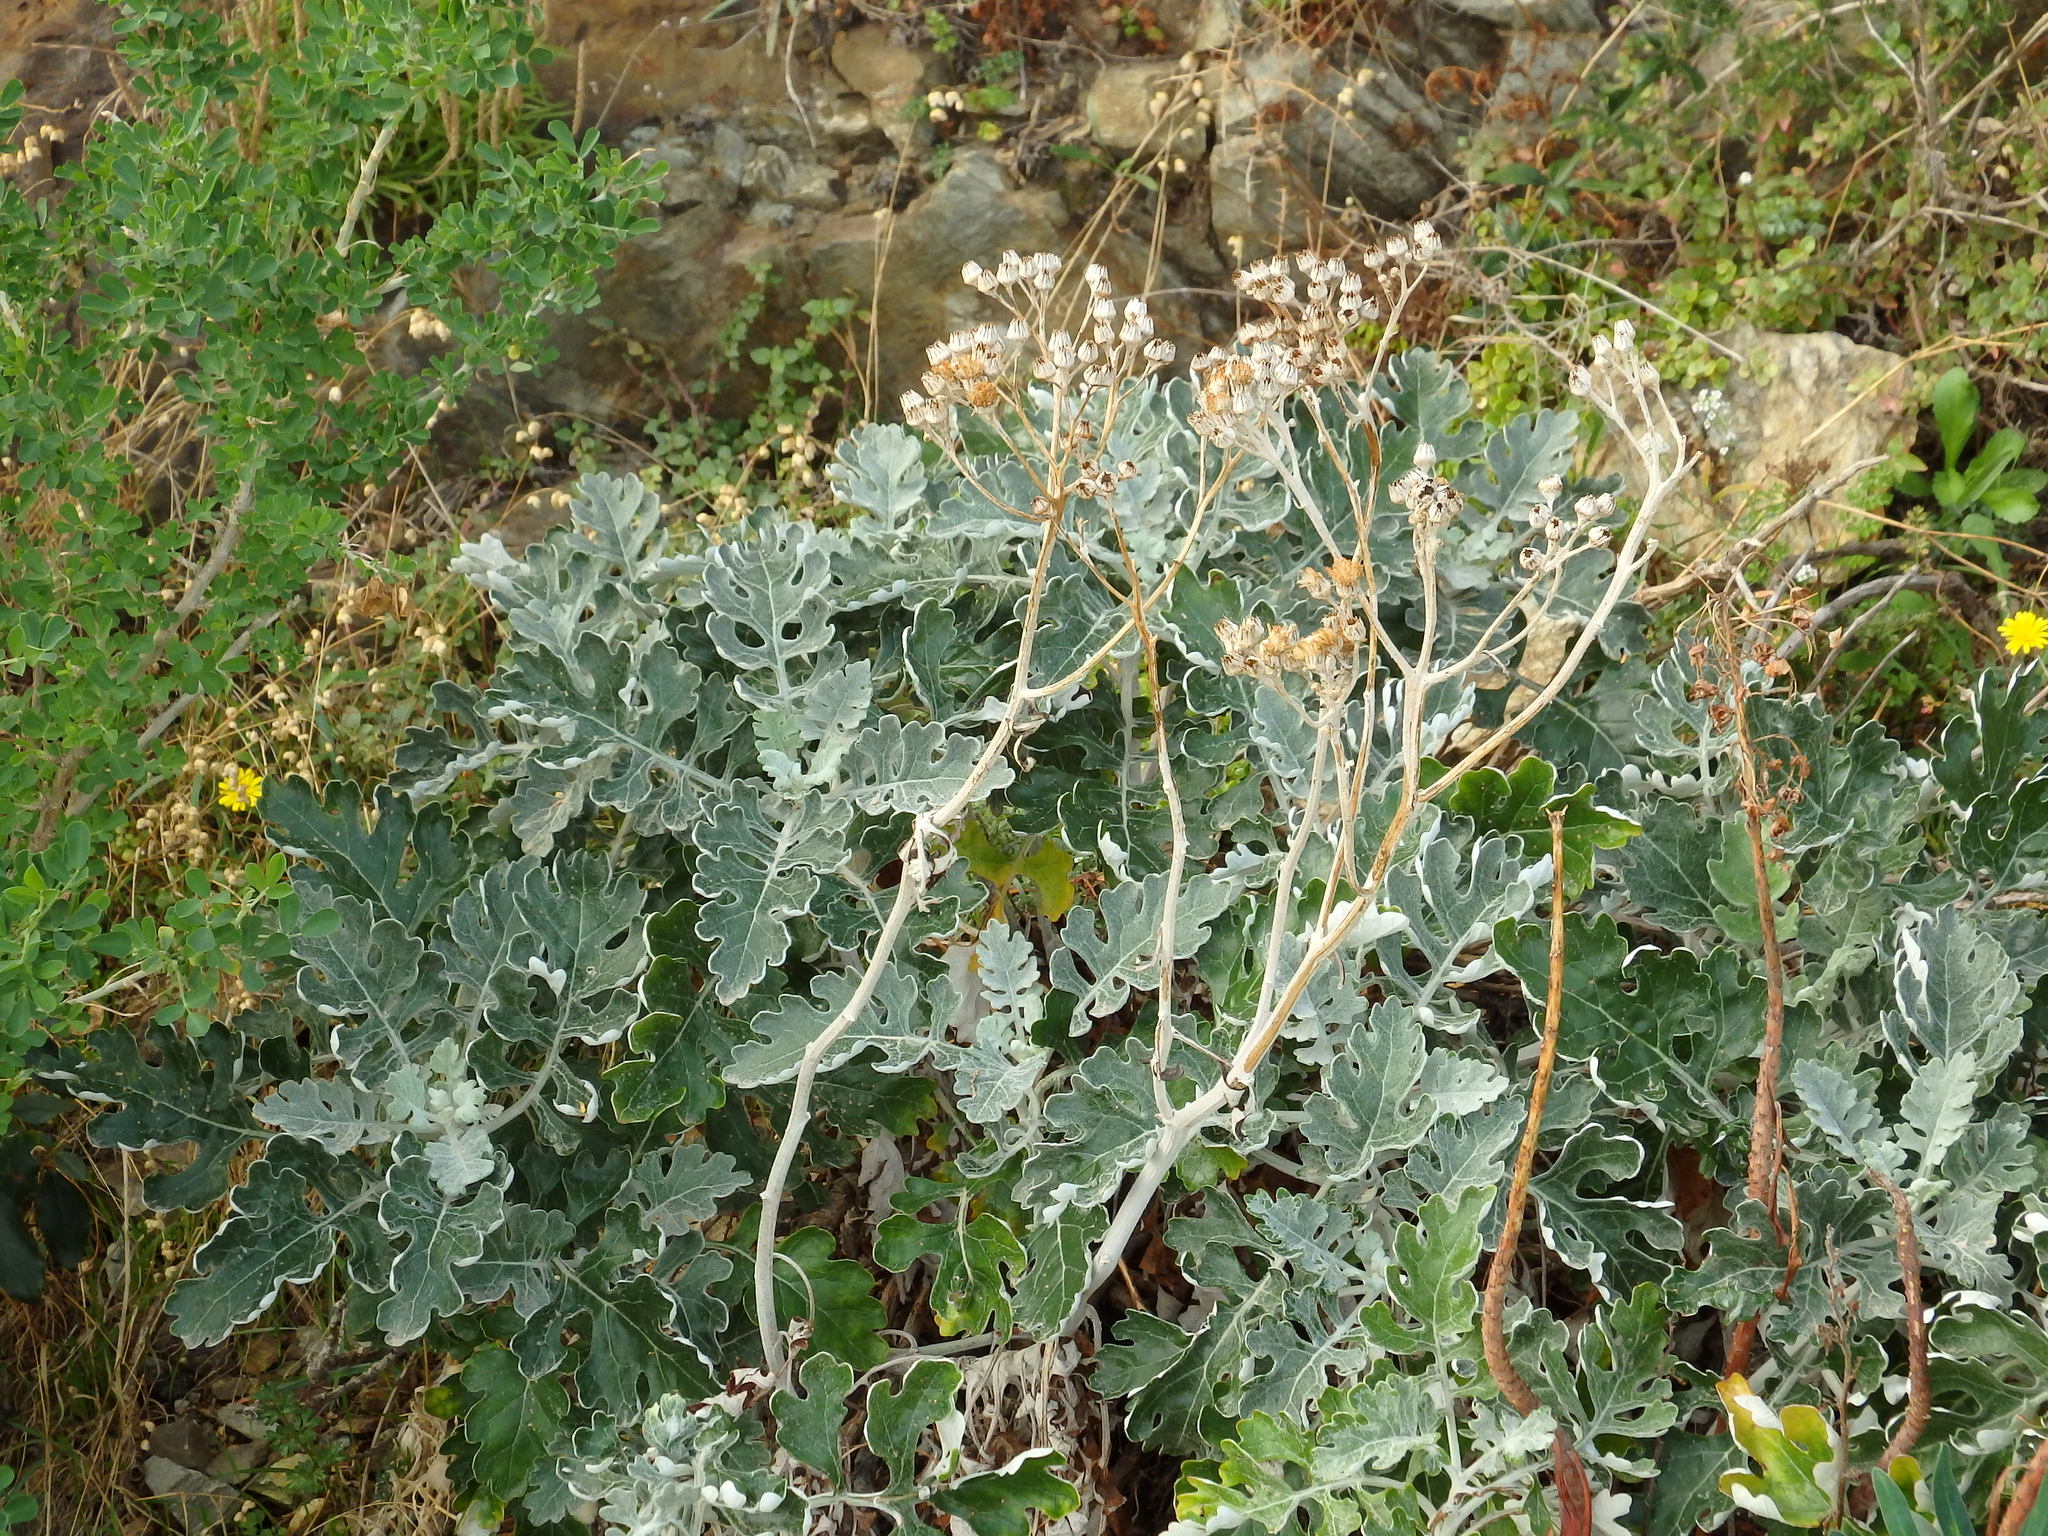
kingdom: Plantae
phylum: Tracheophyta
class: Magnoliopsida
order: Asterales
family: Asteraceae
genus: Jacobaea
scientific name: Jacobaea maritima
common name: Silver ragwort
